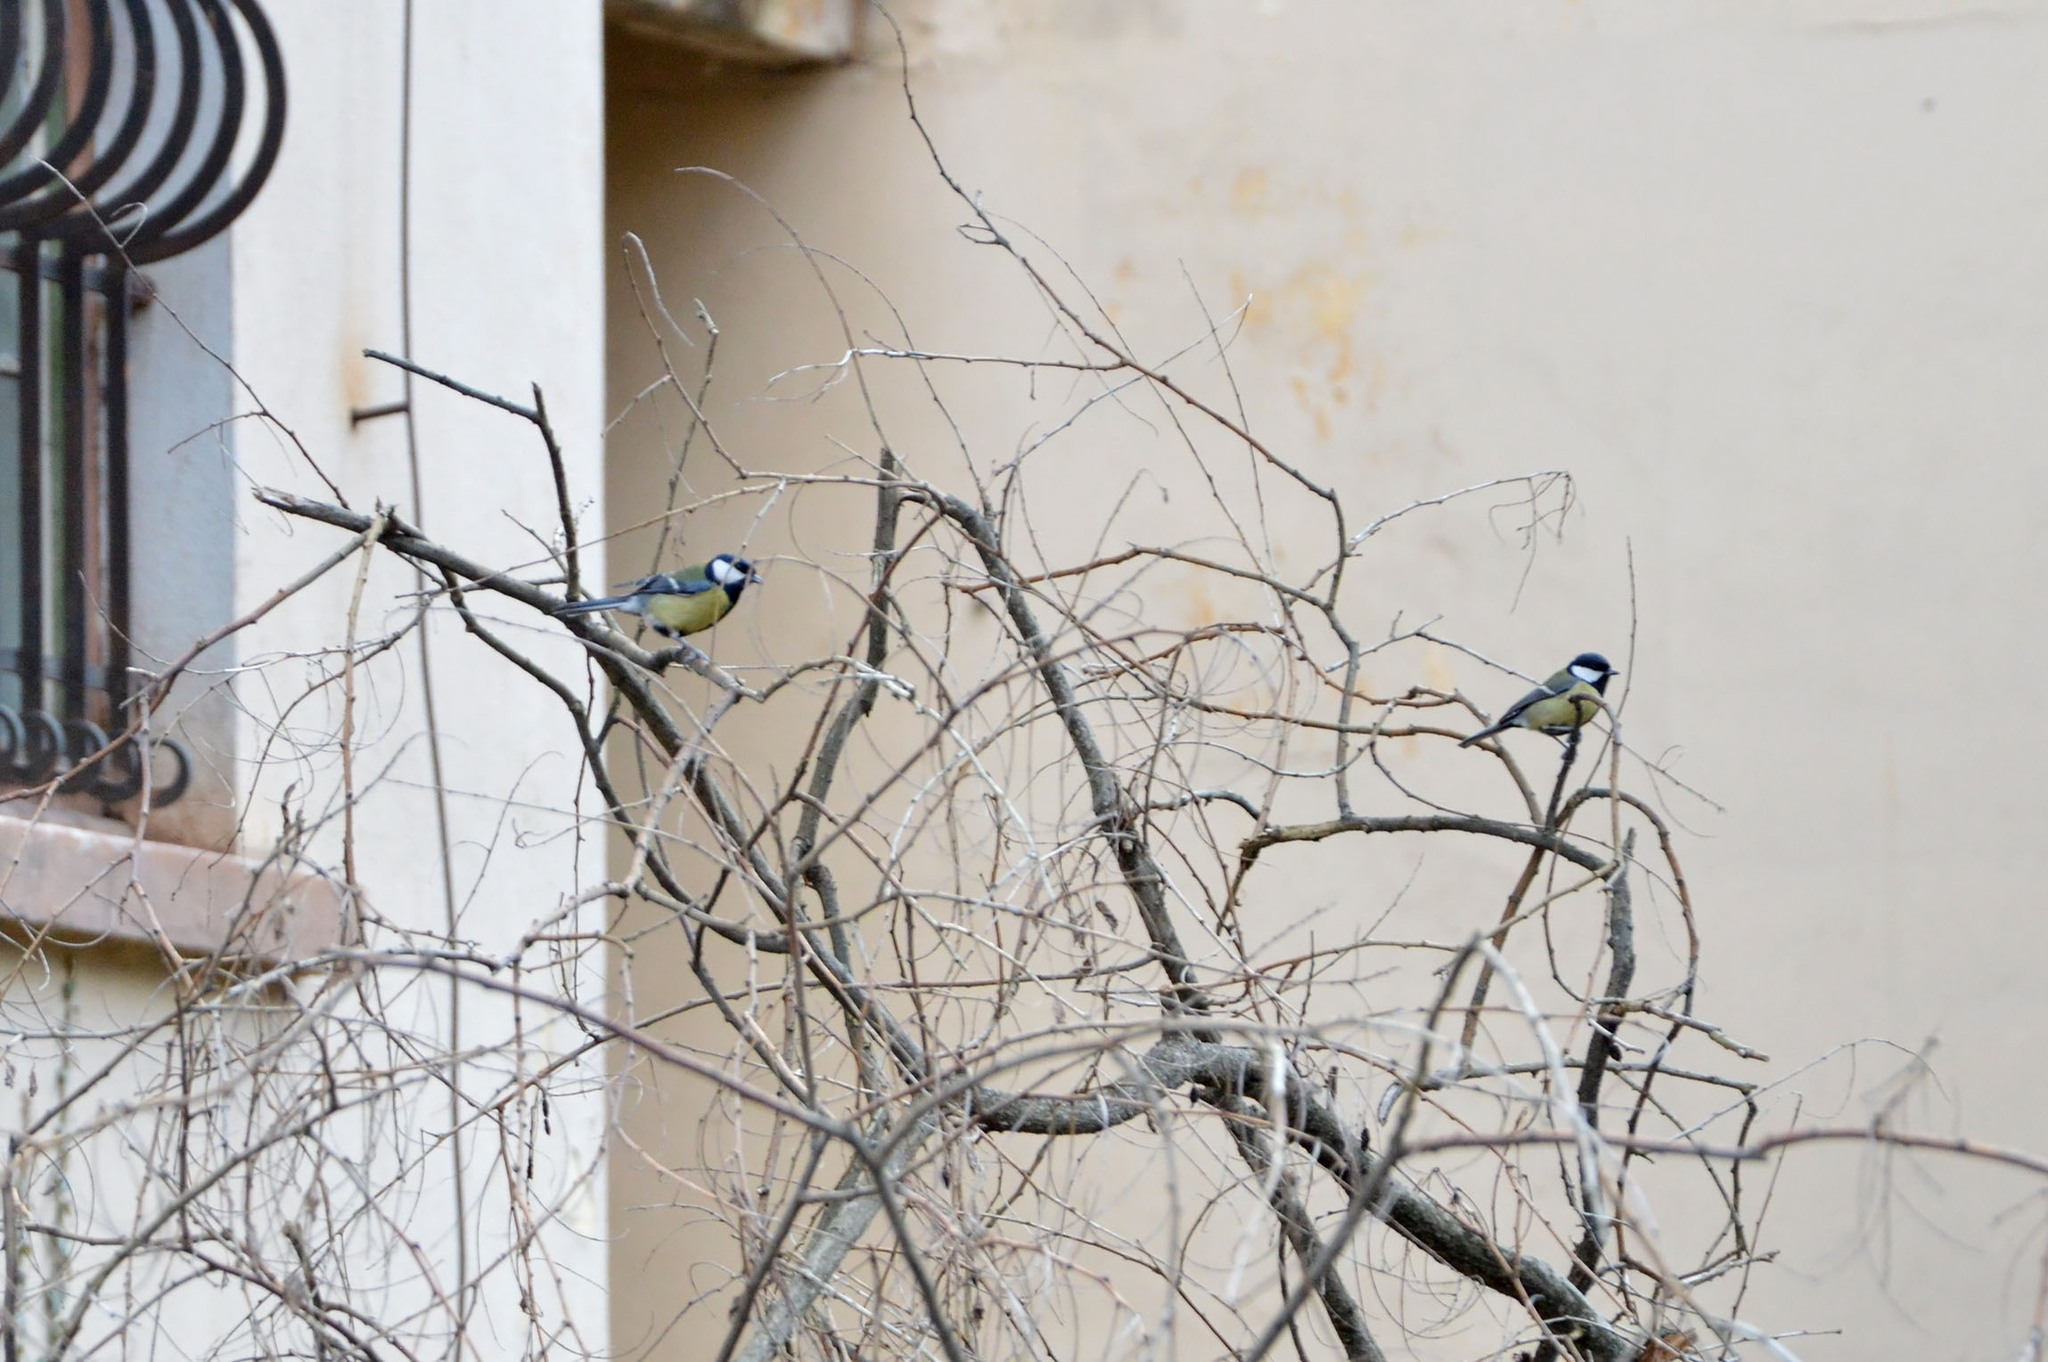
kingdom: Animalia
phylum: Chordata
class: Aves
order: Passeriformes
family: Paridae
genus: Parus
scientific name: Parus major
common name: Great tit
